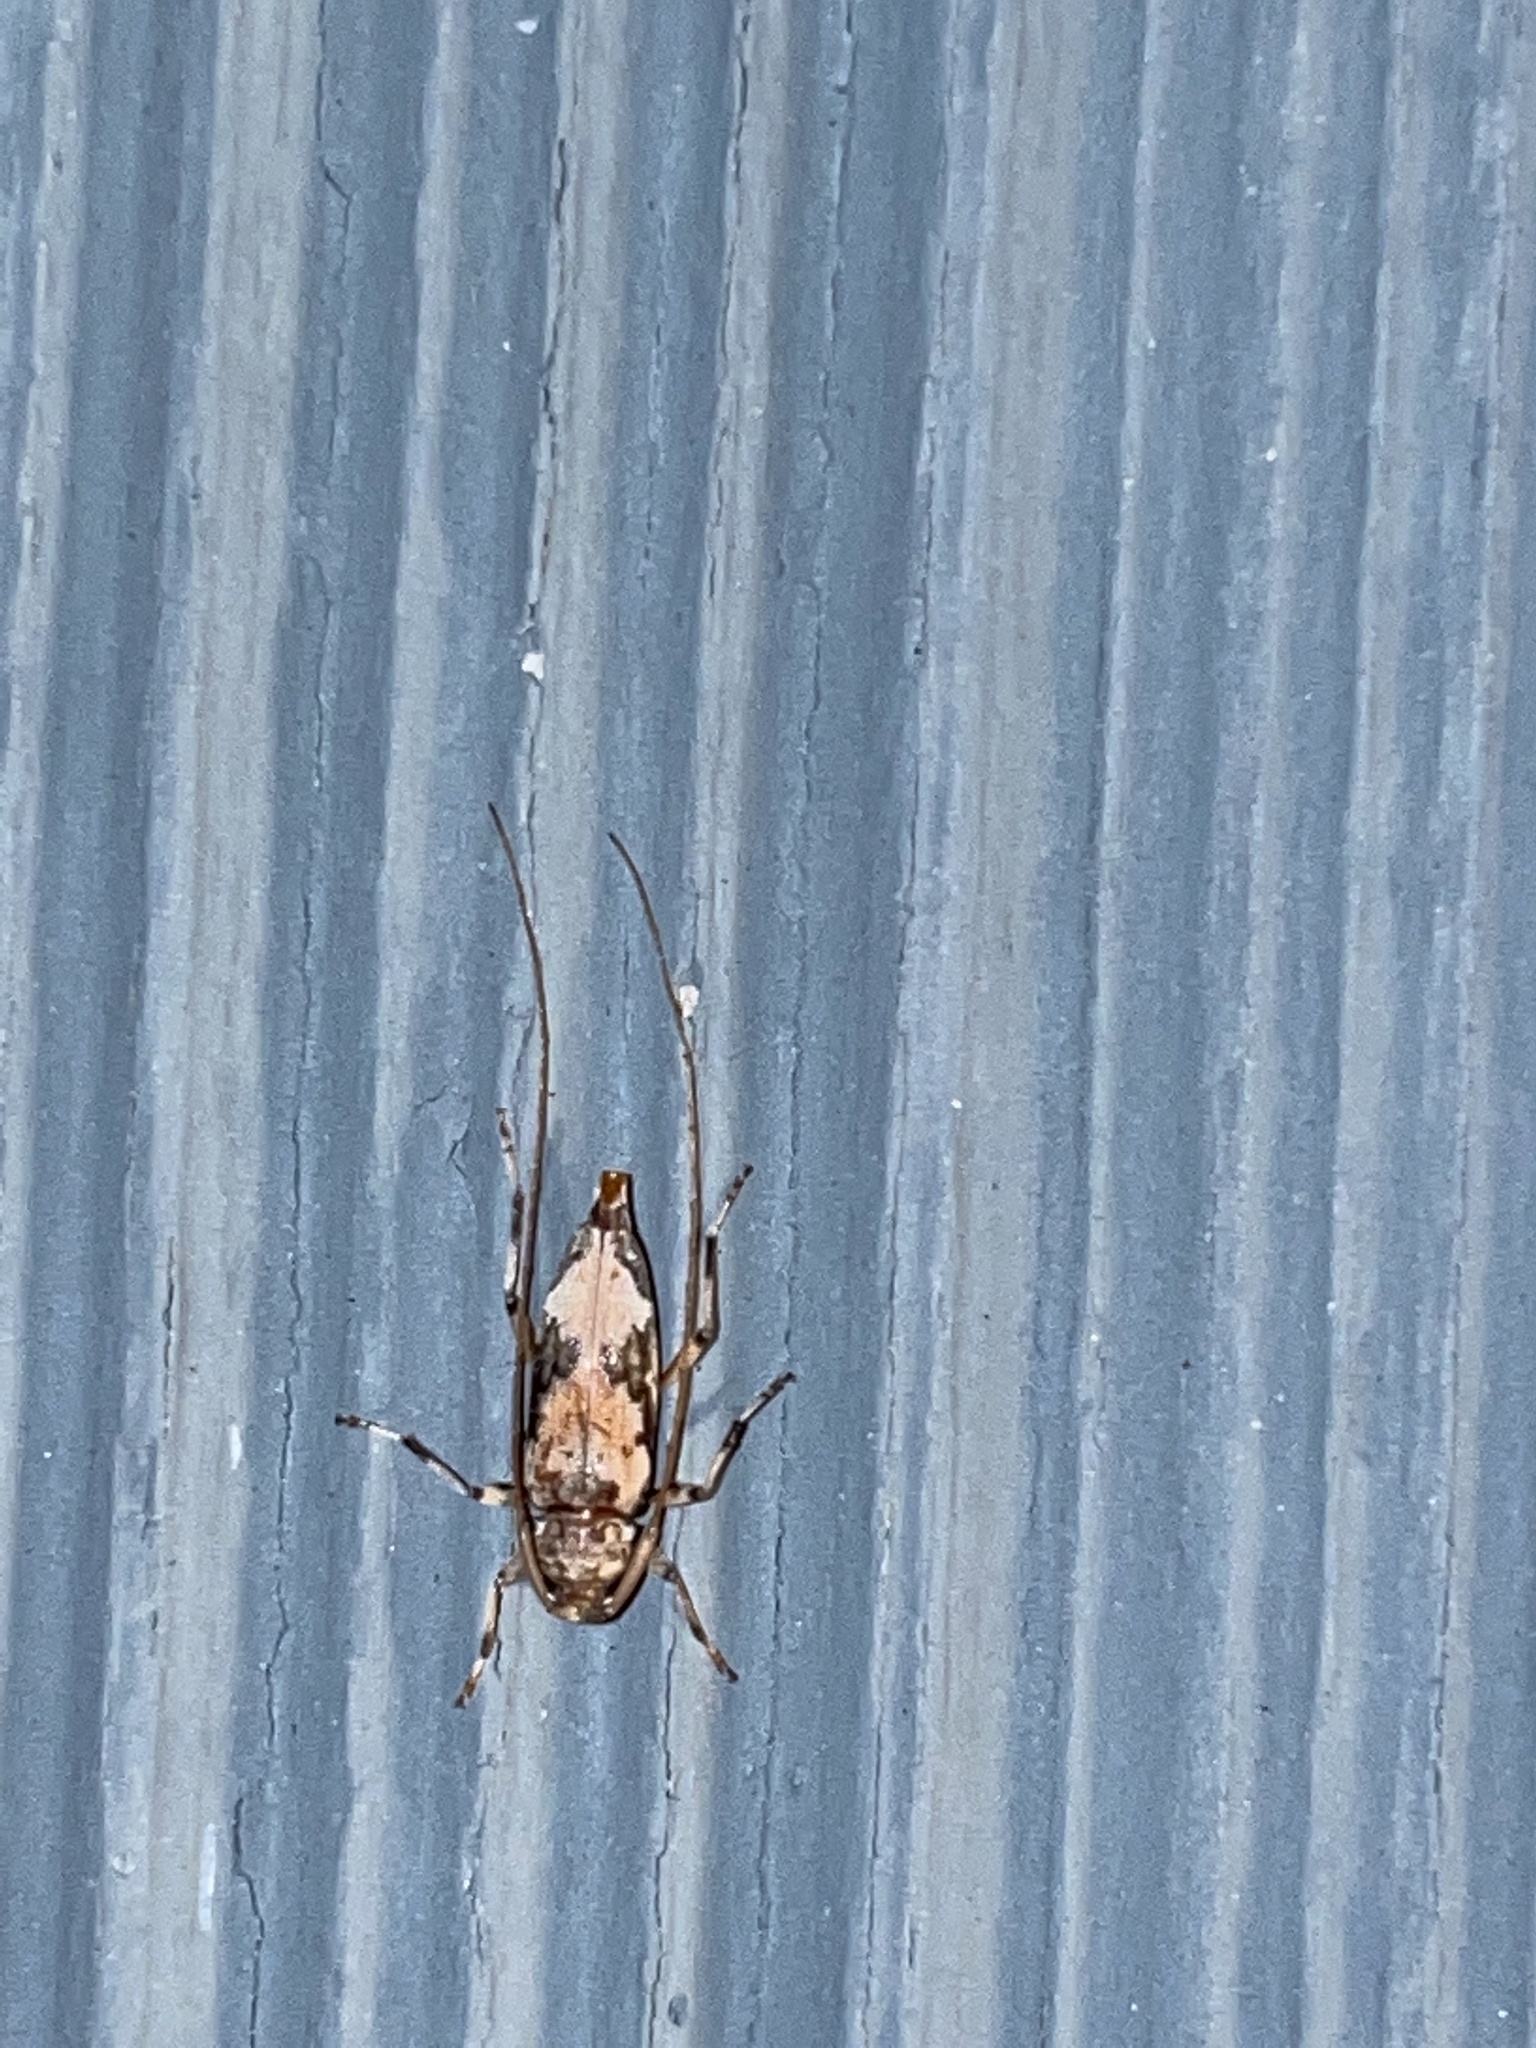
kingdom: Animalia
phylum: Arthropoda
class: Insecta
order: Coleoptera
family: Cerambycidae
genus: Lepturges
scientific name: Lepturges angulatus
